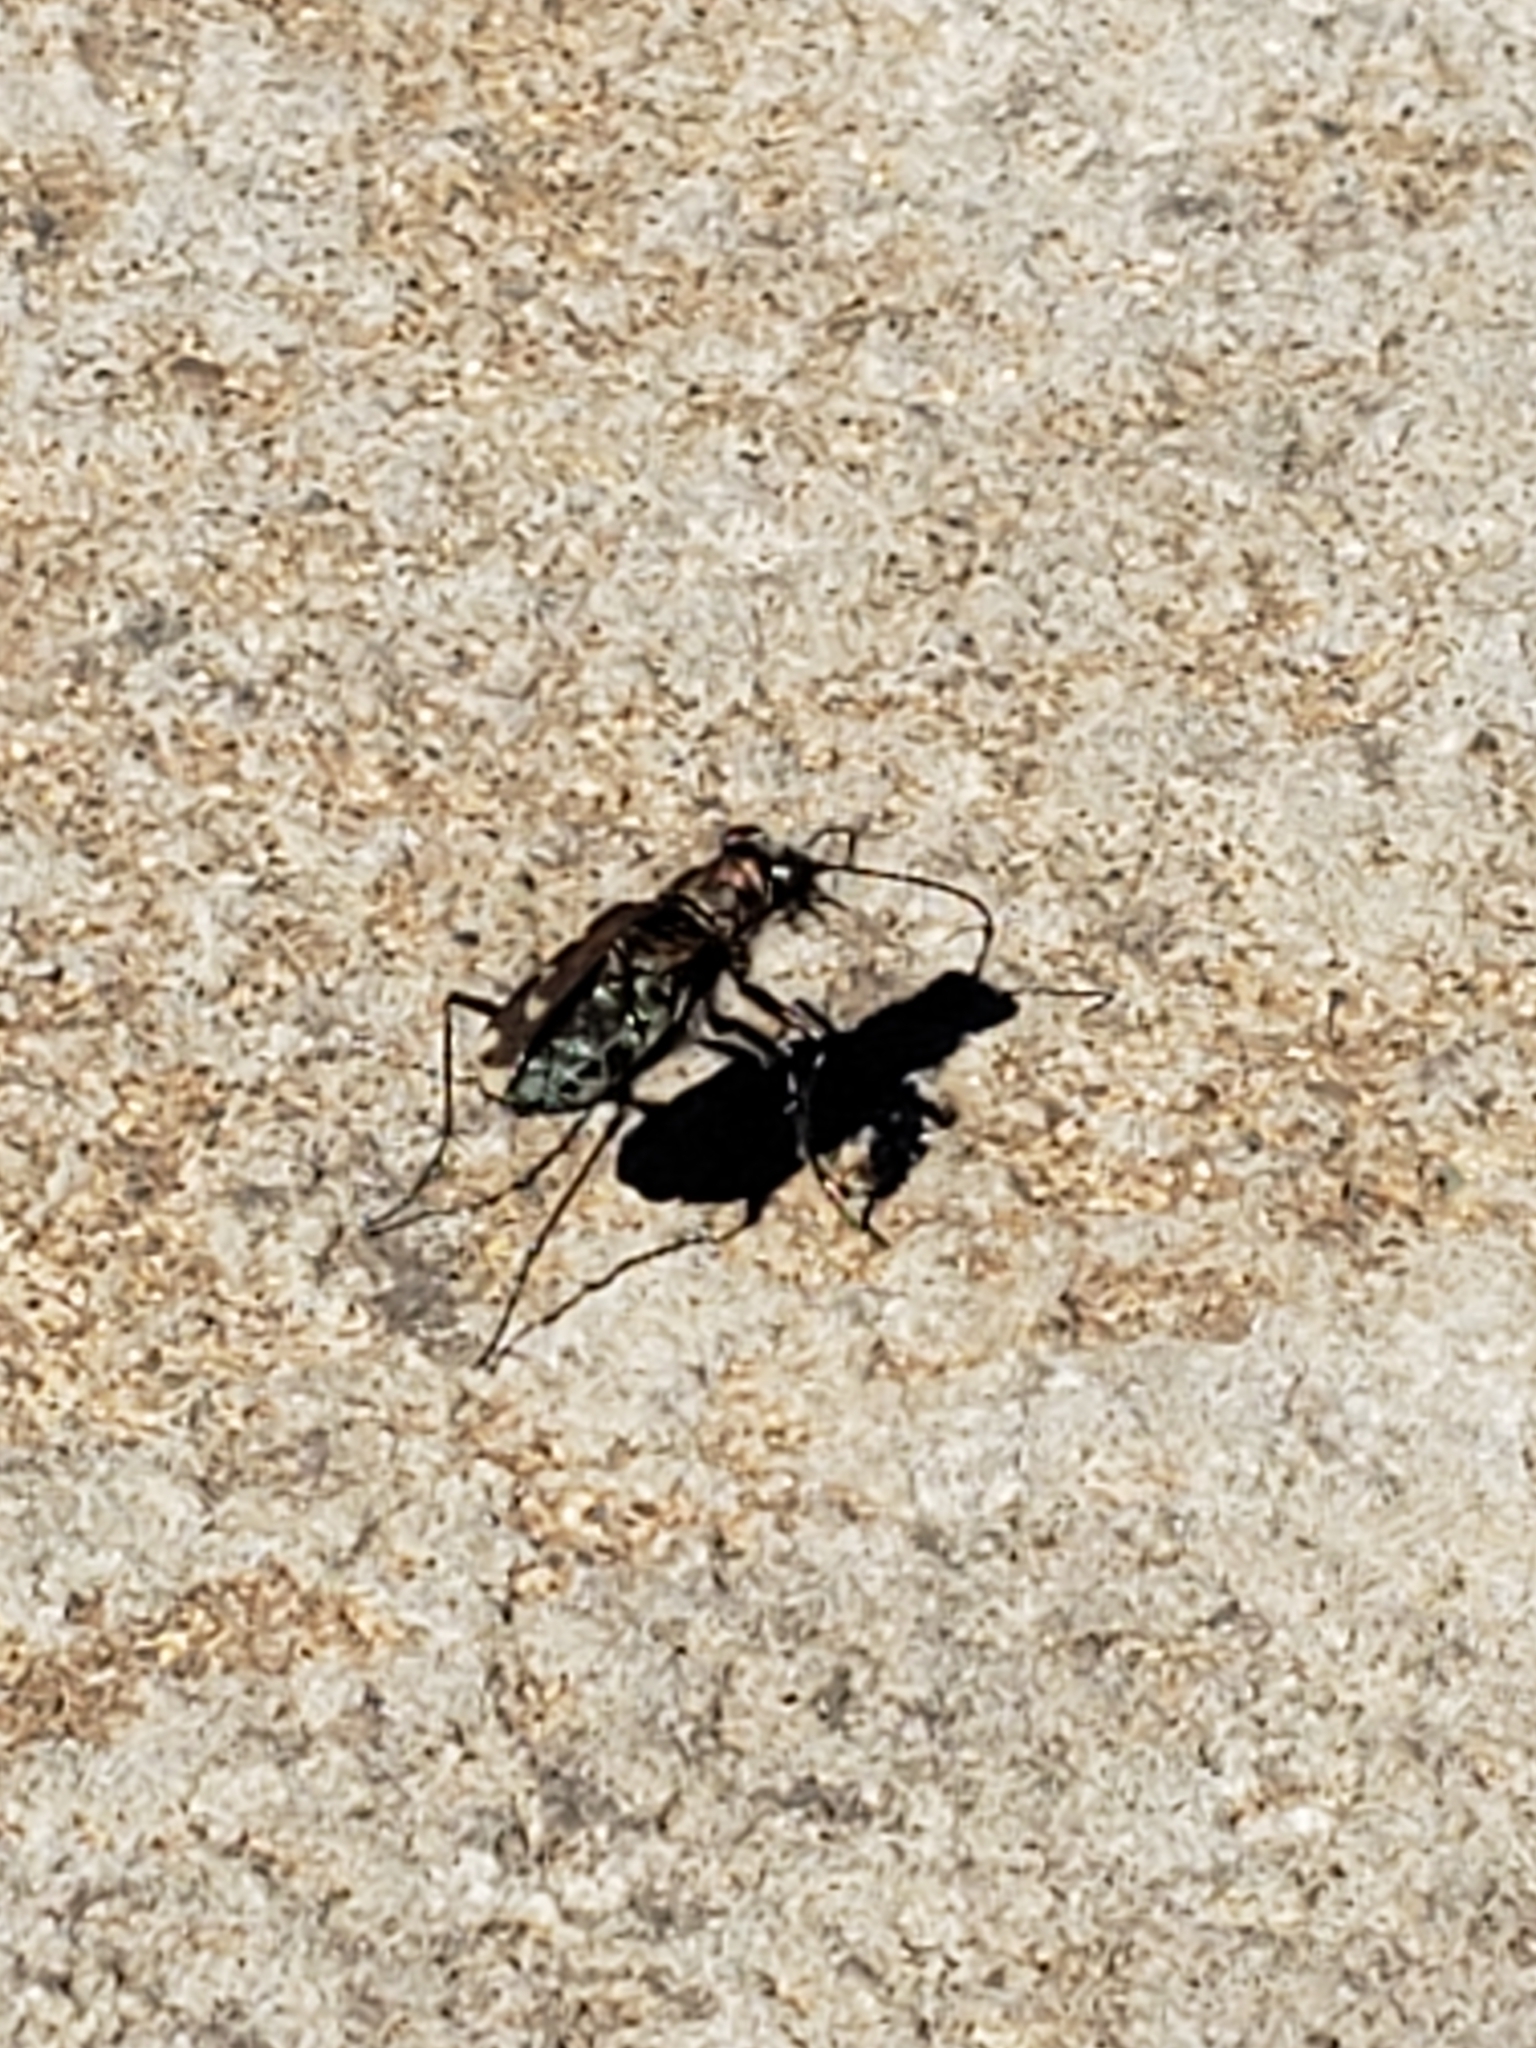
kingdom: Animalia
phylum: Arthropoda
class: Insecta
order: Coleoptera
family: Carabidae
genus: Cicindela
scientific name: Cicindela repanda
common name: Bronzed tiger beetle
